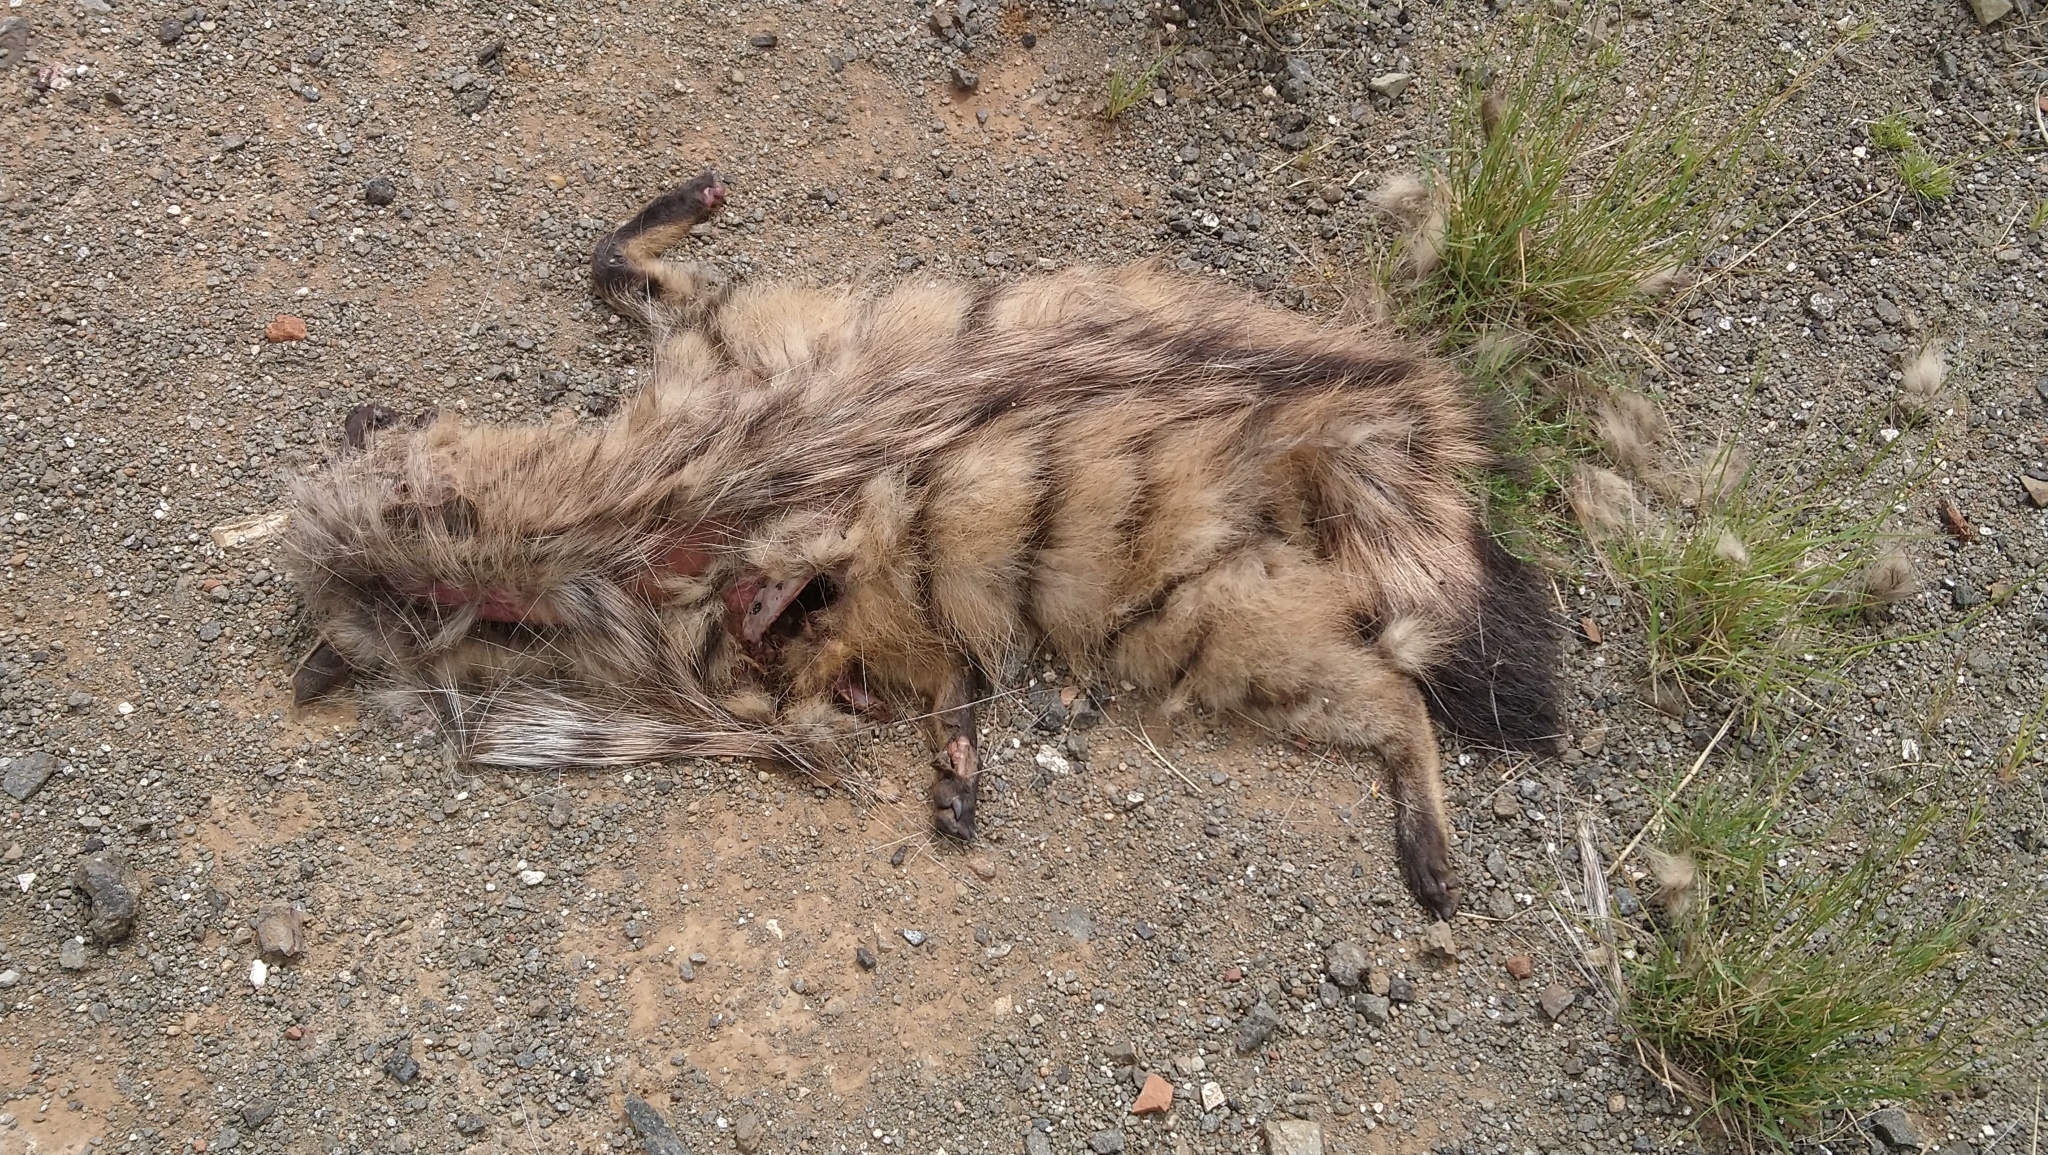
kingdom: Animalia
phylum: Chordata
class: Mammalia
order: Carnivora
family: Hyaenidae
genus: Proteles
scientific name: Proteles cristata
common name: Aardwolf
